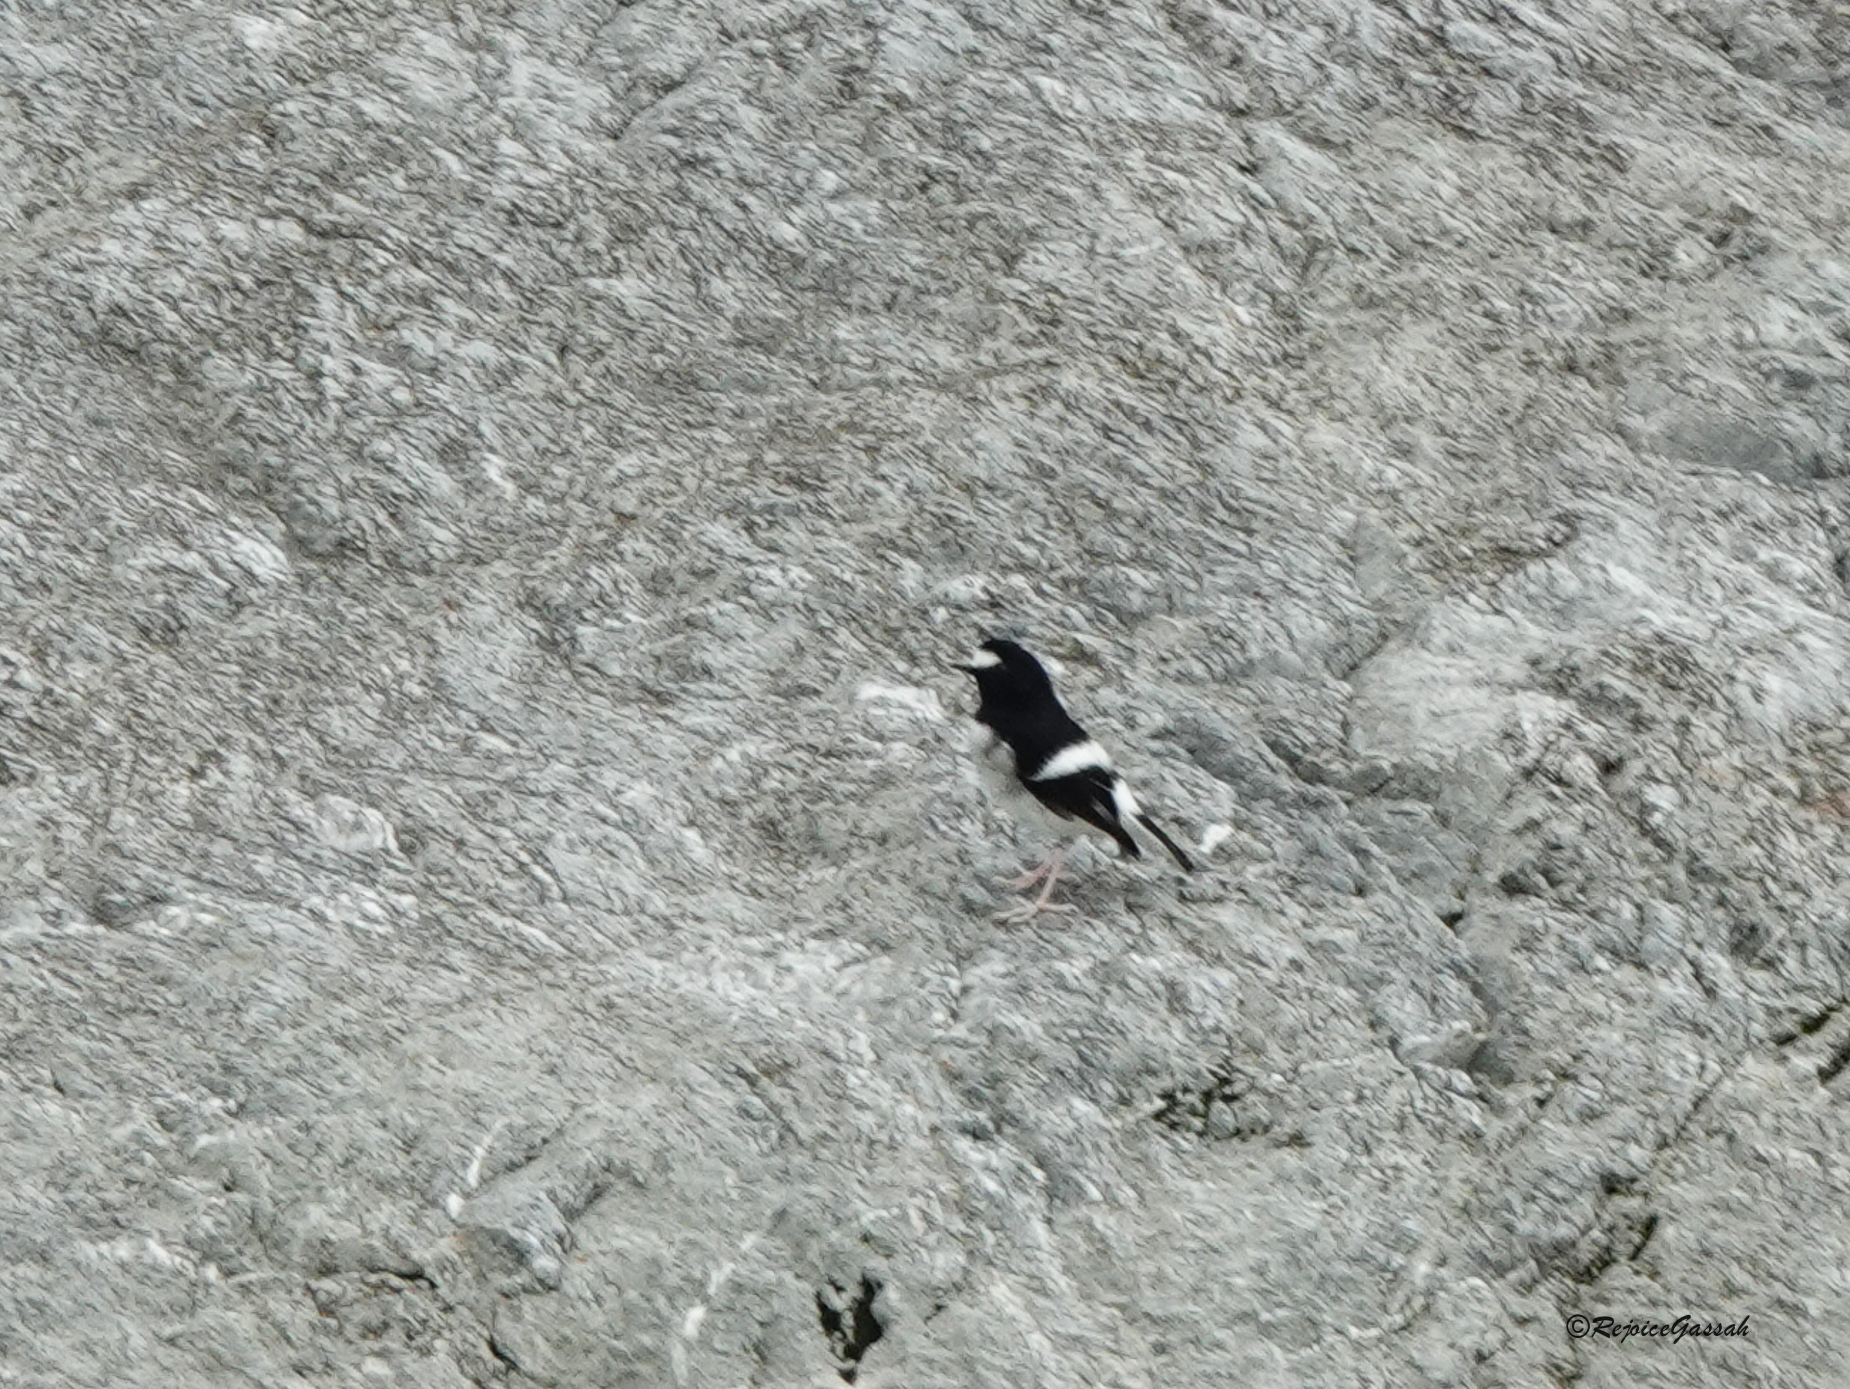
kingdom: Animalia
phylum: Chordata
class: Aves
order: Passeriformes
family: Muscicapidae
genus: Enicurus
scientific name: Enicurus scouleri
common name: Little forktail
